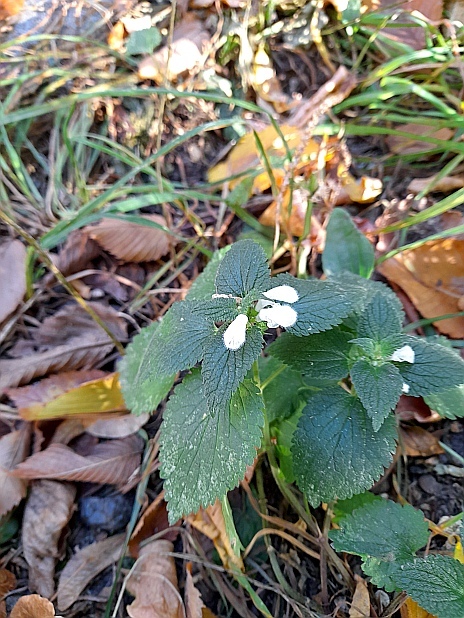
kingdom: Plantae
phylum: Tracheophyta
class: Magnoliopsida
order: Lamiales
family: Lamiaceae
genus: Lamium
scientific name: Lamium album
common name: White dead-nettle
